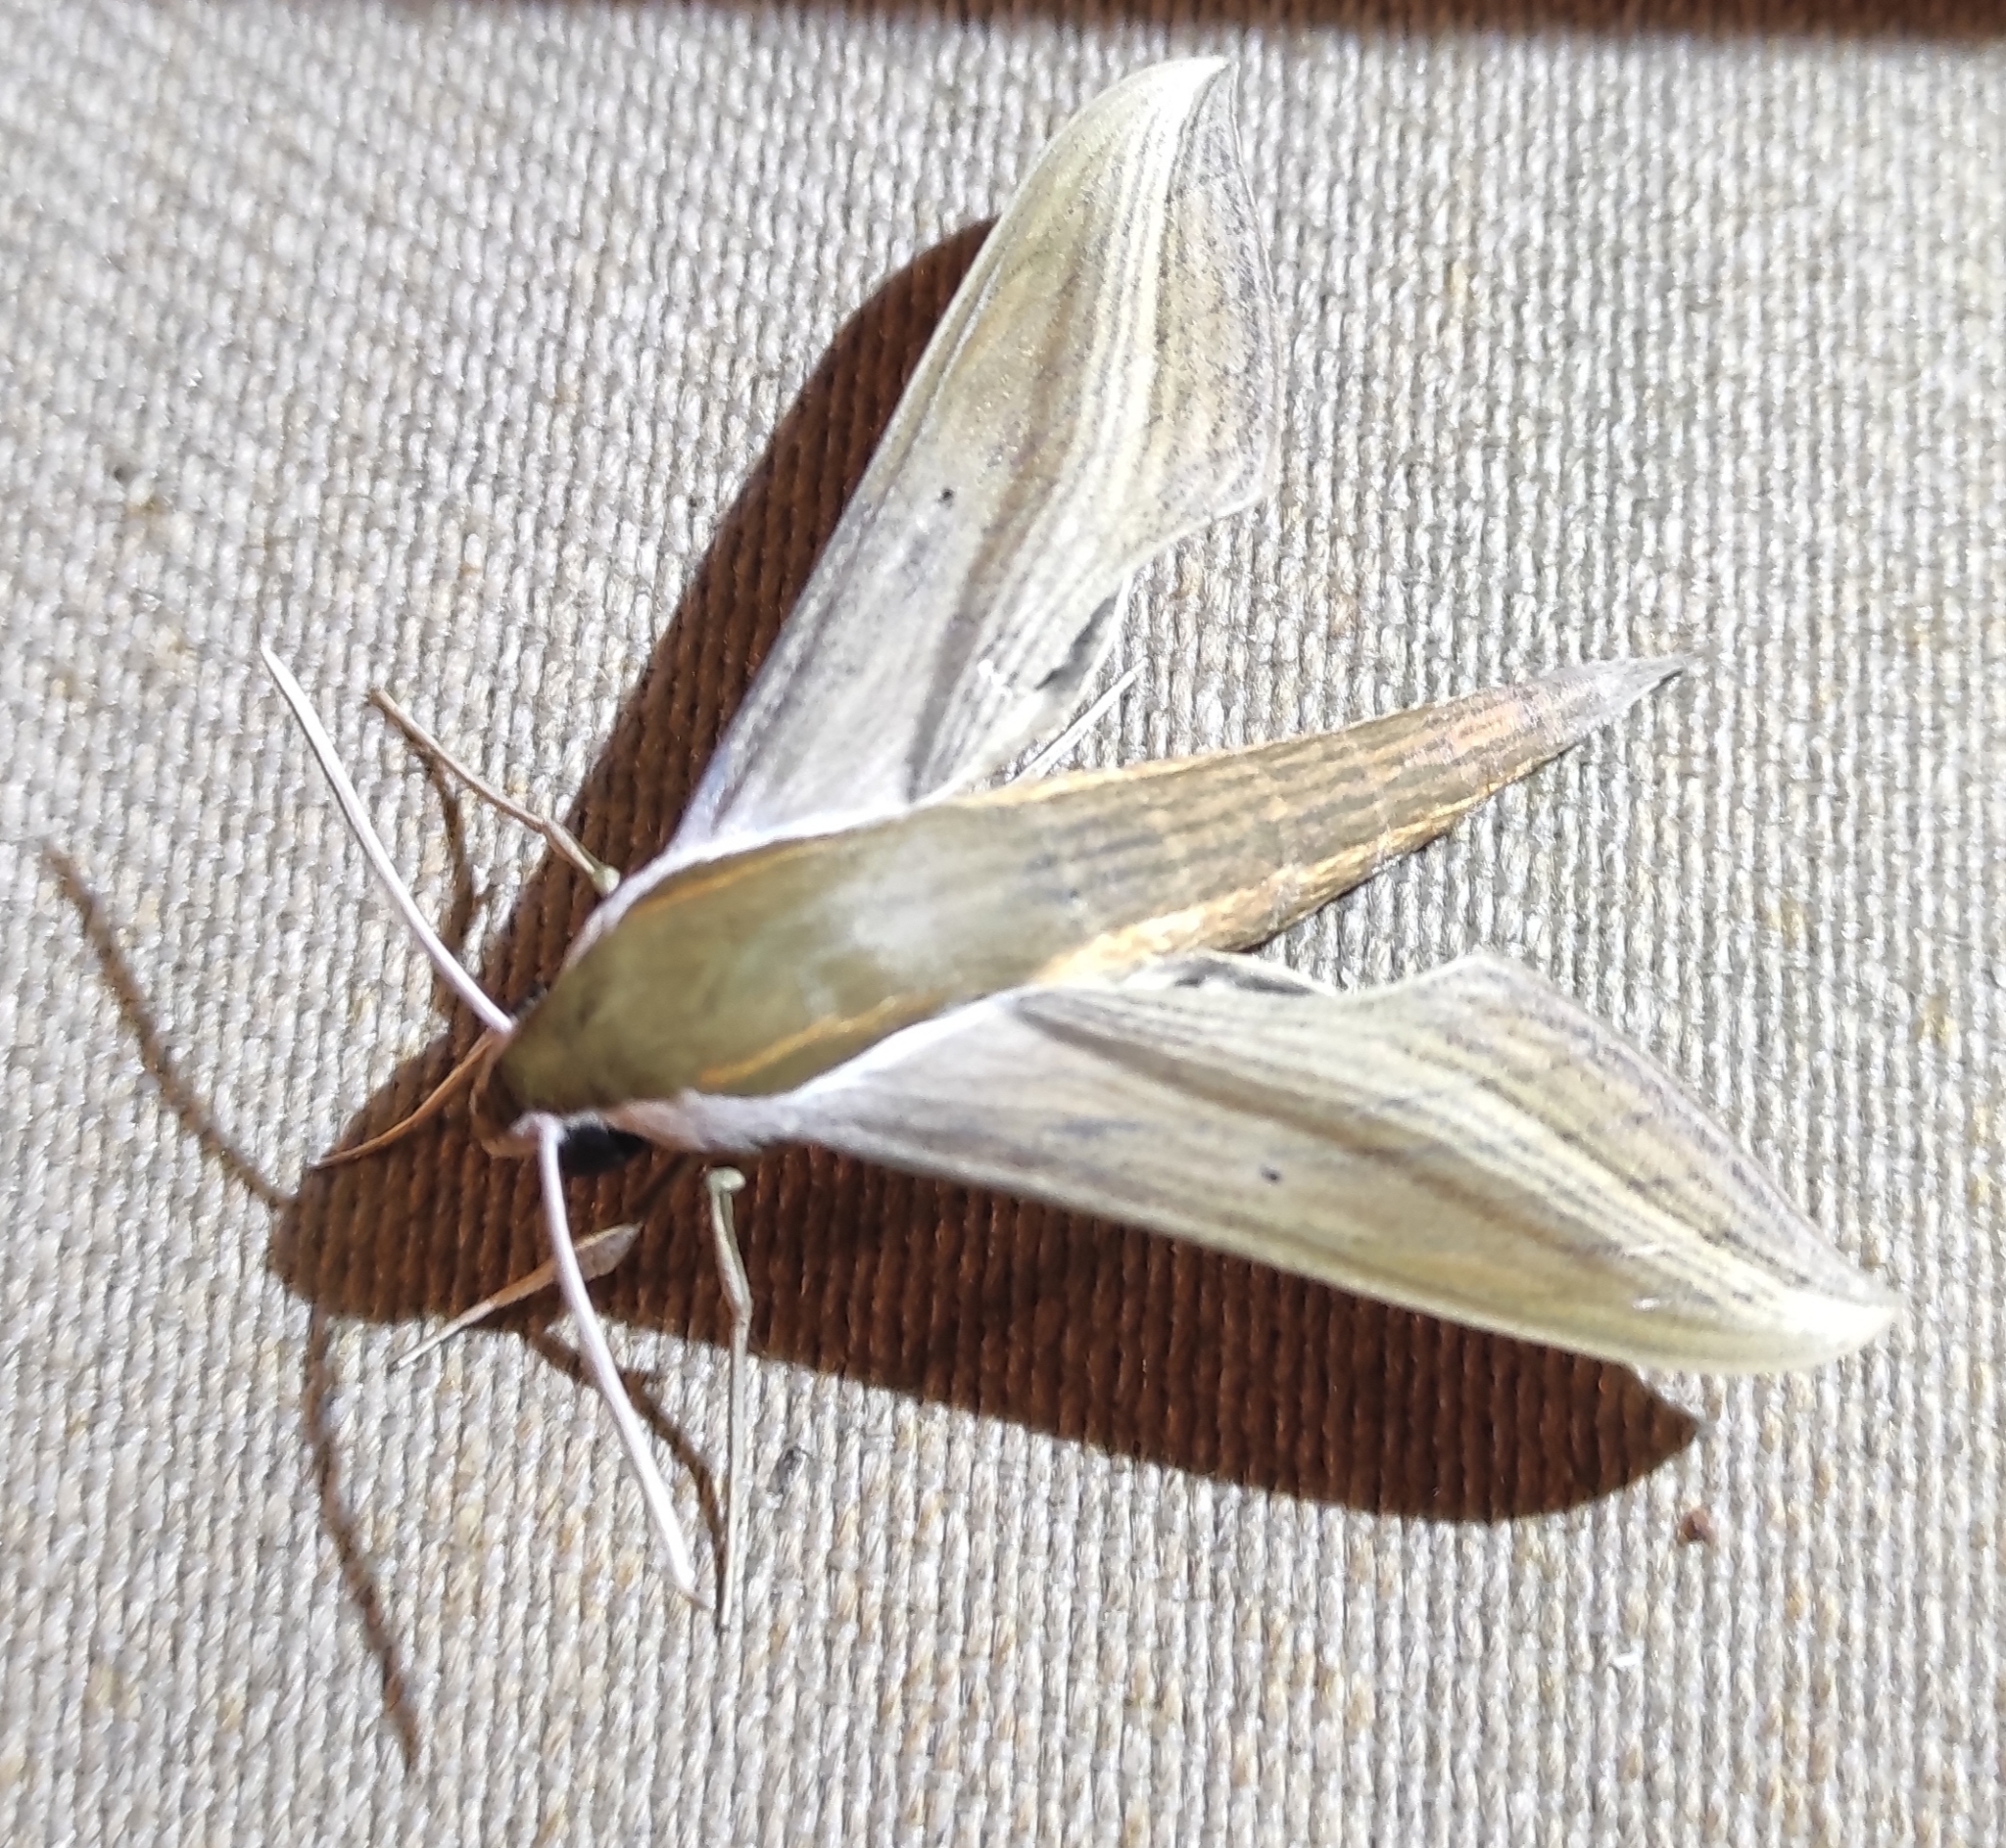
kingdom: Animalia
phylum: Arthropoda
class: Insecta
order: Lepidoptera
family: Sphingidae
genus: Xylophanes
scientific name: Xylophanes tersa
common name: Tersa sphinx
